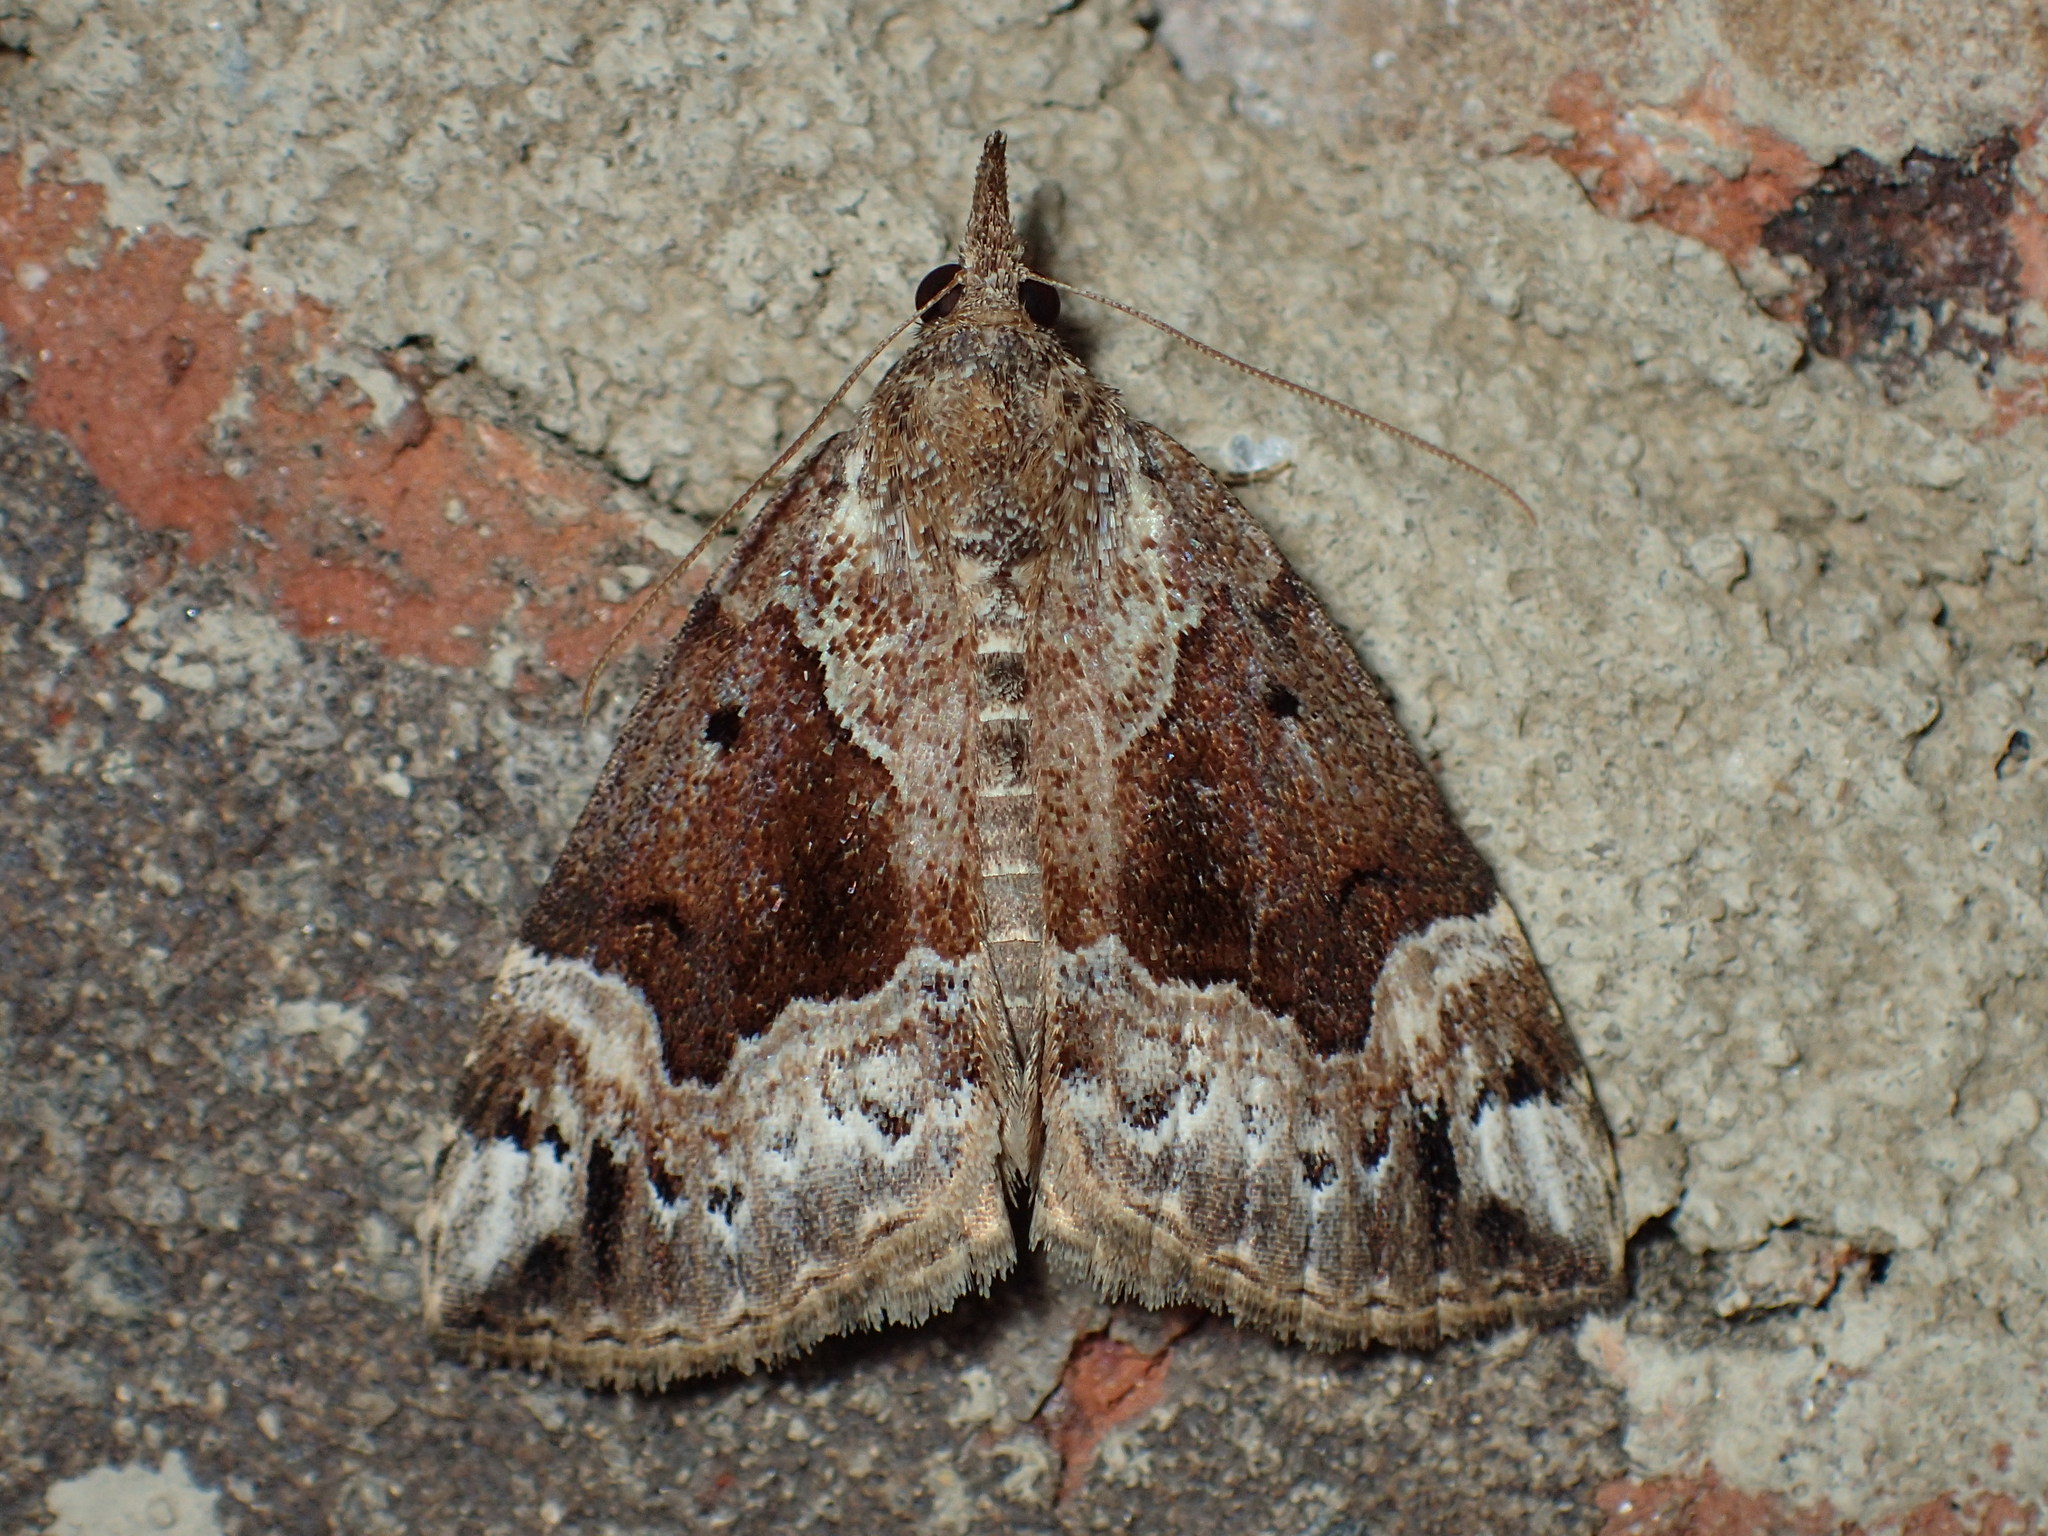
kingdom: Animalia
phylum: Arthropoda
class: Insecta
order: Lepidoptera
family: Erebidae
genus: Hypena
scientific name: Hypena palparia
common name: Mottled bomolocha moth
